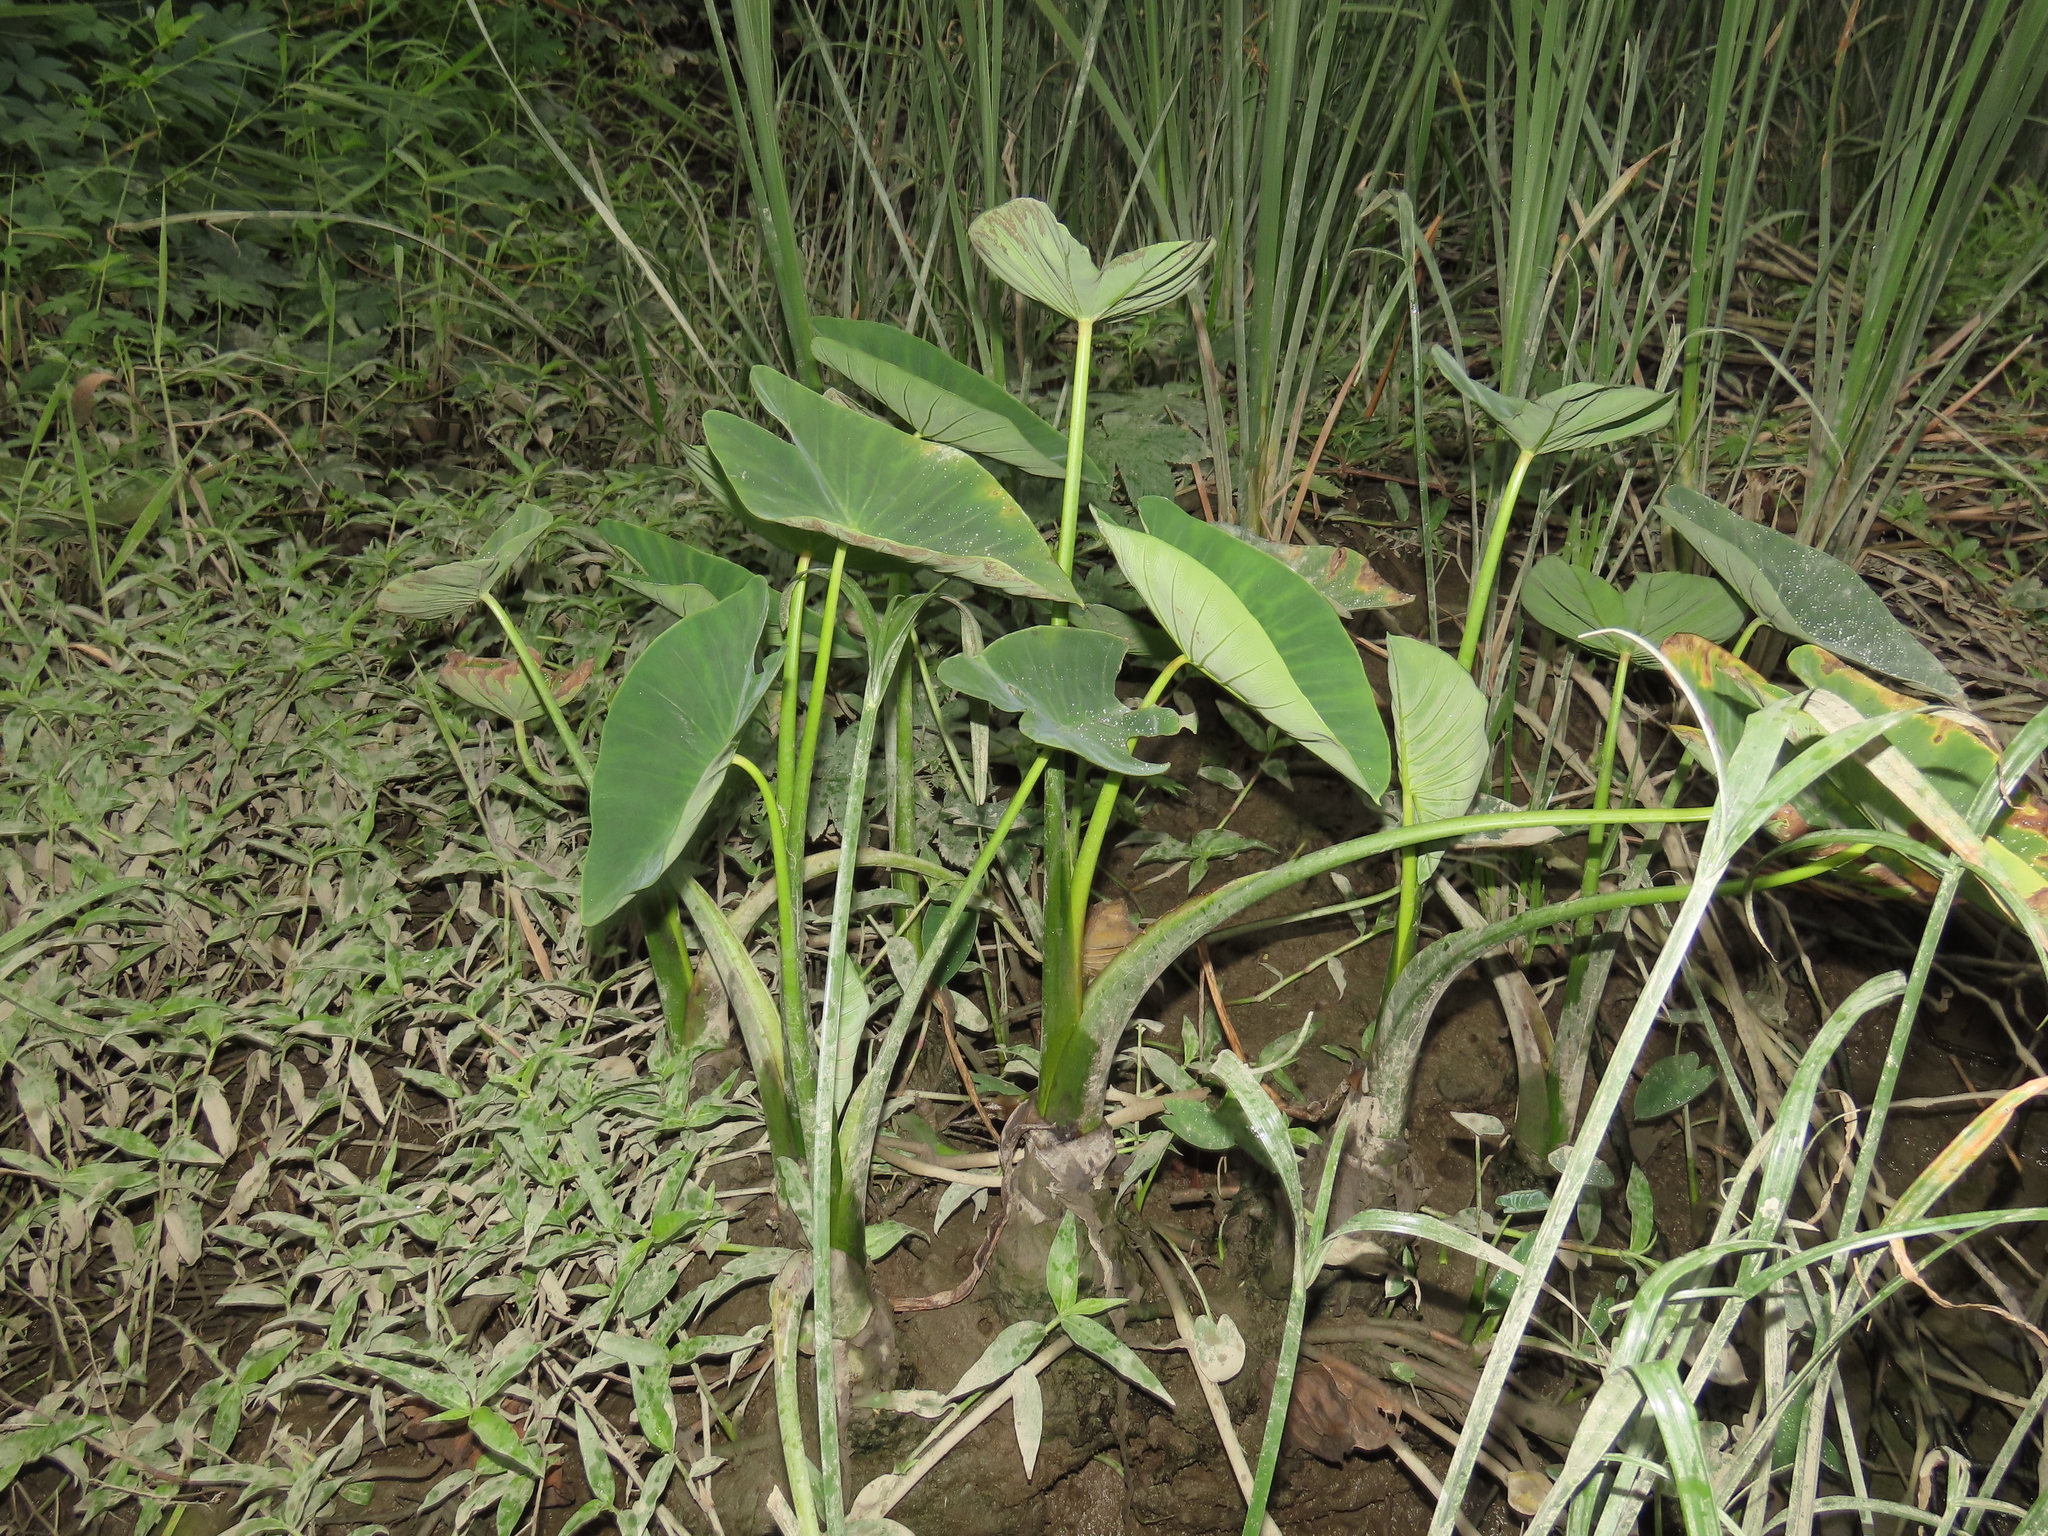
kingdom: Plantae
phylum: Tracheophyta
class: Liliopsida
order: Alismatales
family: Araceae
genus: Colocasia
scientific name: Colocasia esculenta
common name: Taro
